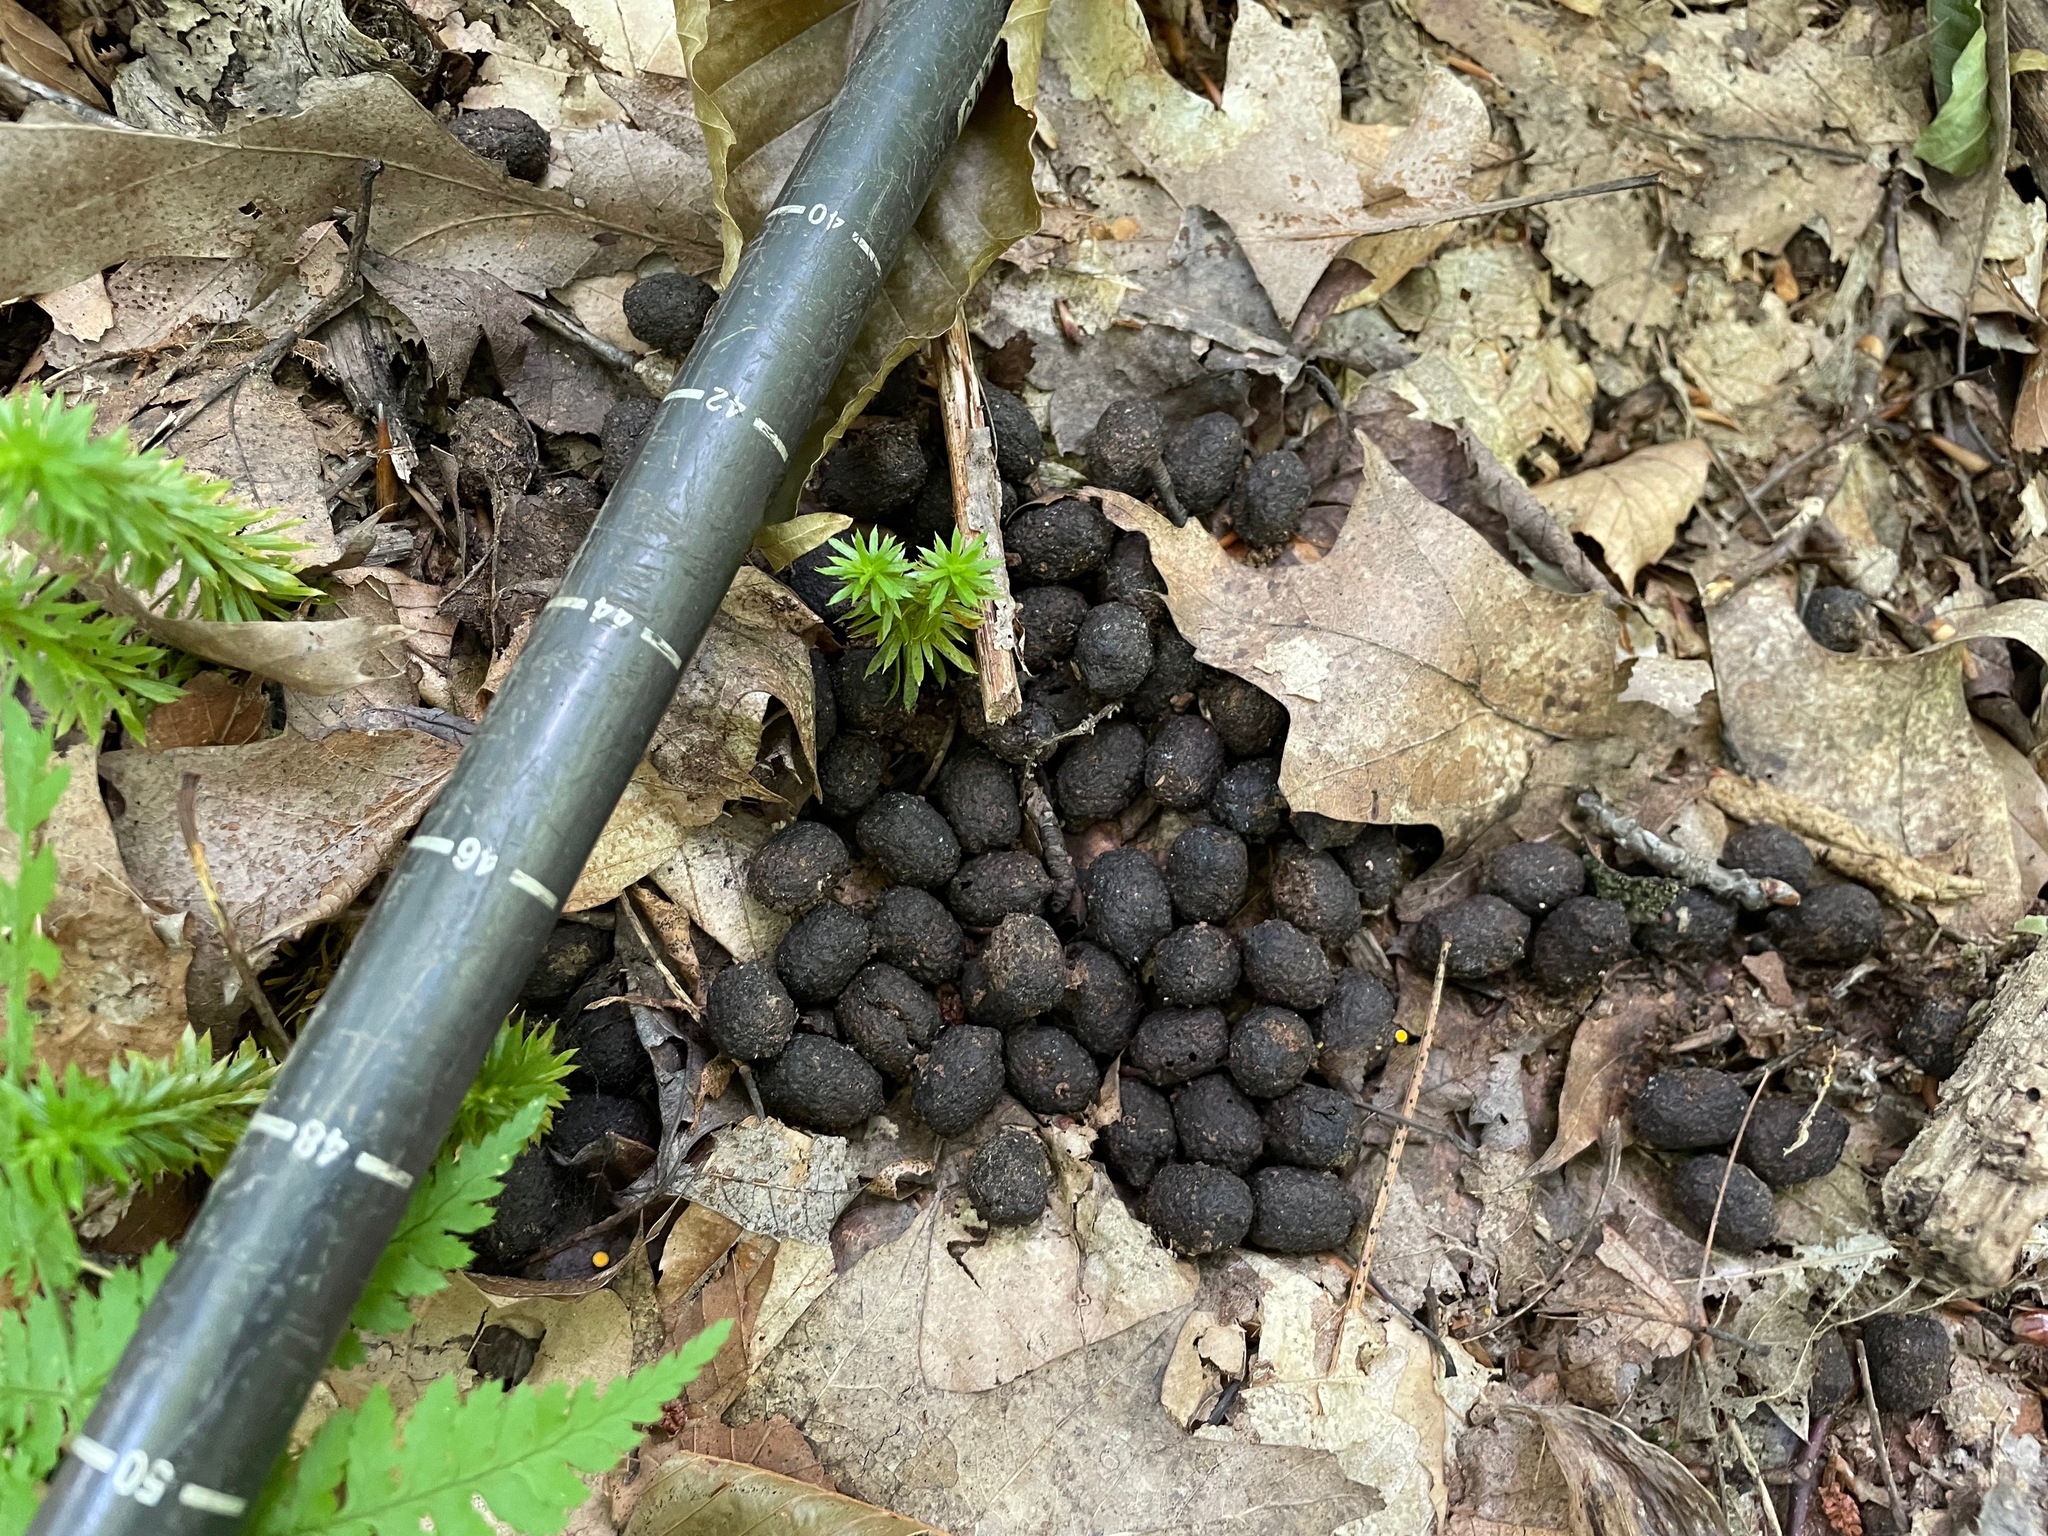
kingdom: Animalia
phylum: Chordata
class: Mammalia
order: Artiodactyla
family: Cervidae
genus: Odocoileus
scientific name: Odocoileus virginianus
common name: White-tailed deer
